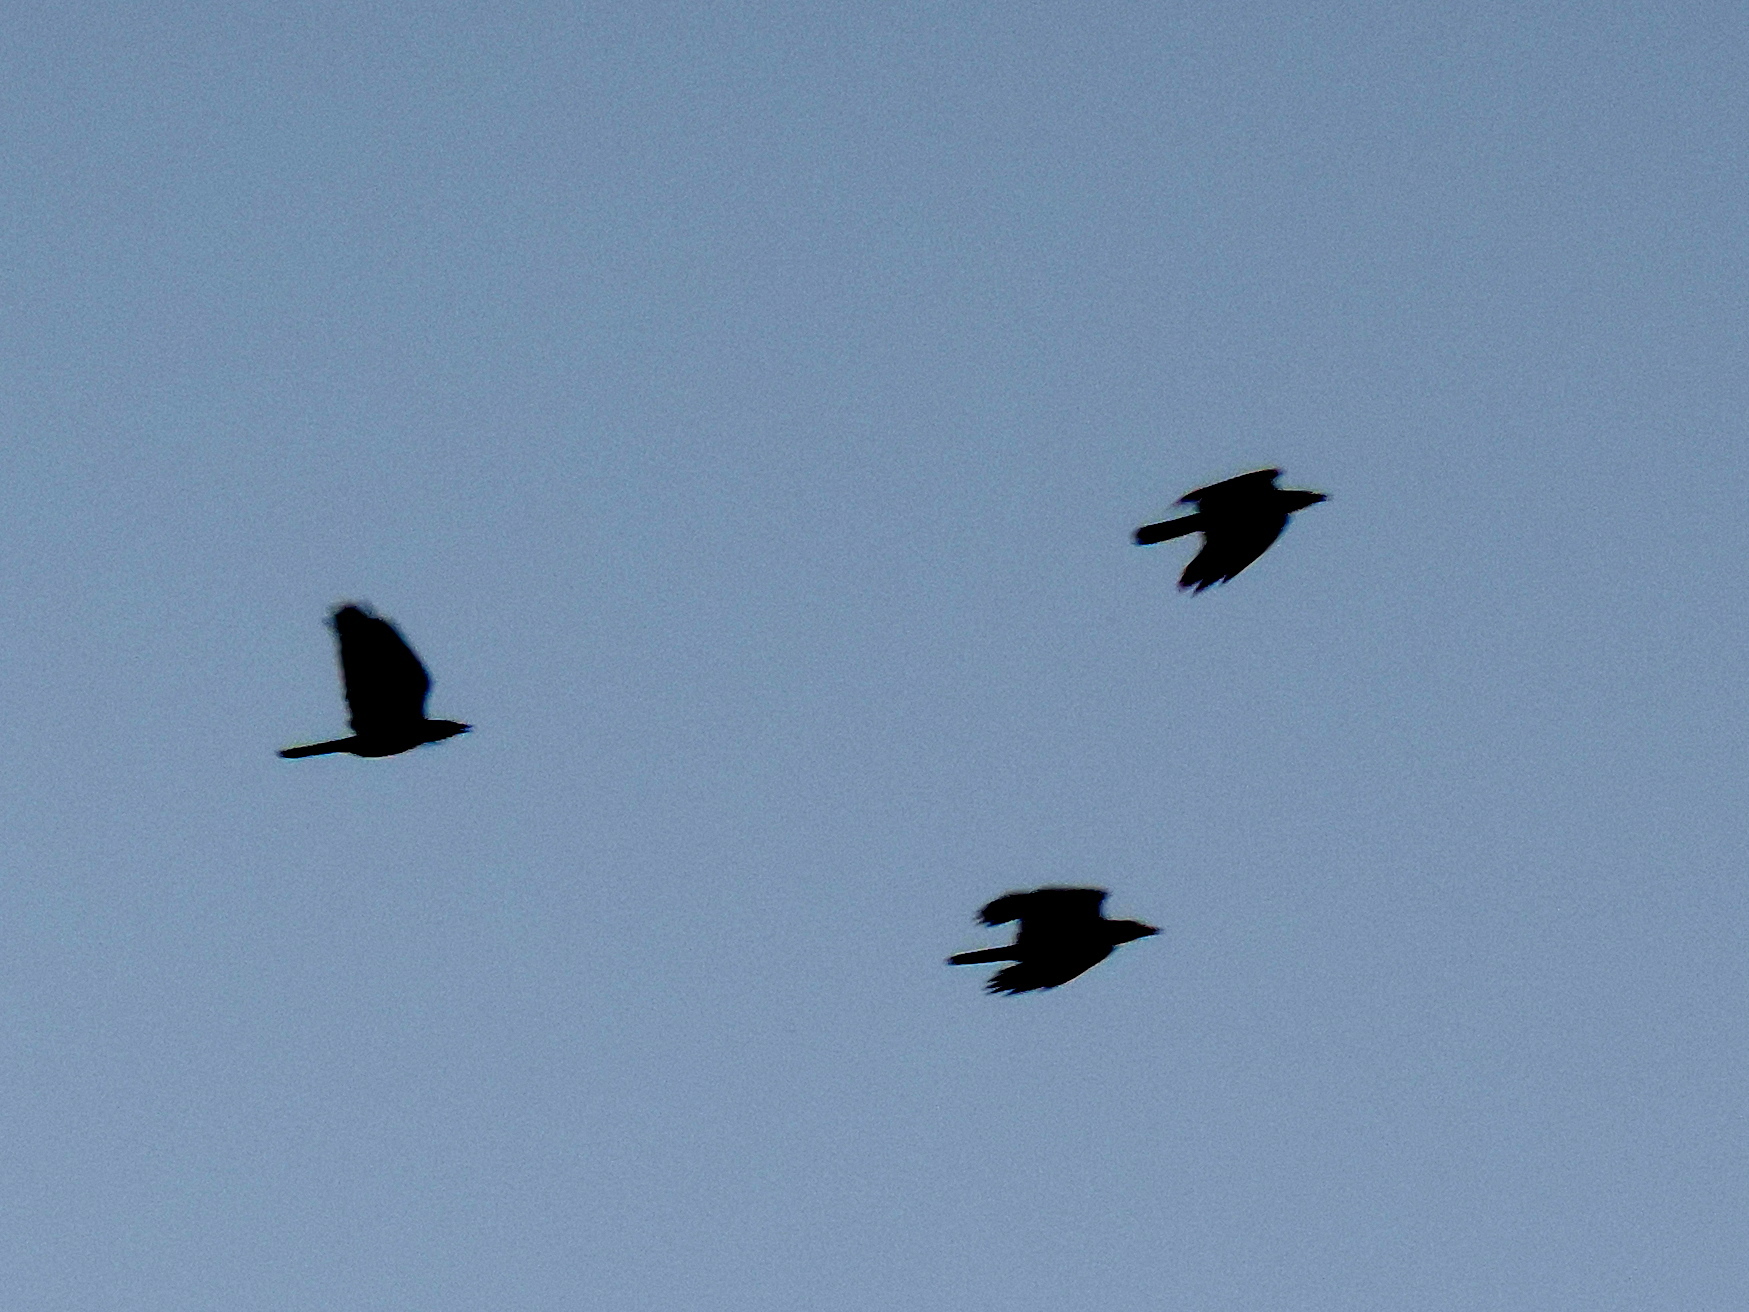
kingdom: Animalia
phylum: Chordata
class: Aves
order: Passeriformes
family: Corvidae
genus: Corvus
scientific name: Corvus sinaloae
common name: Sinaloa crow
